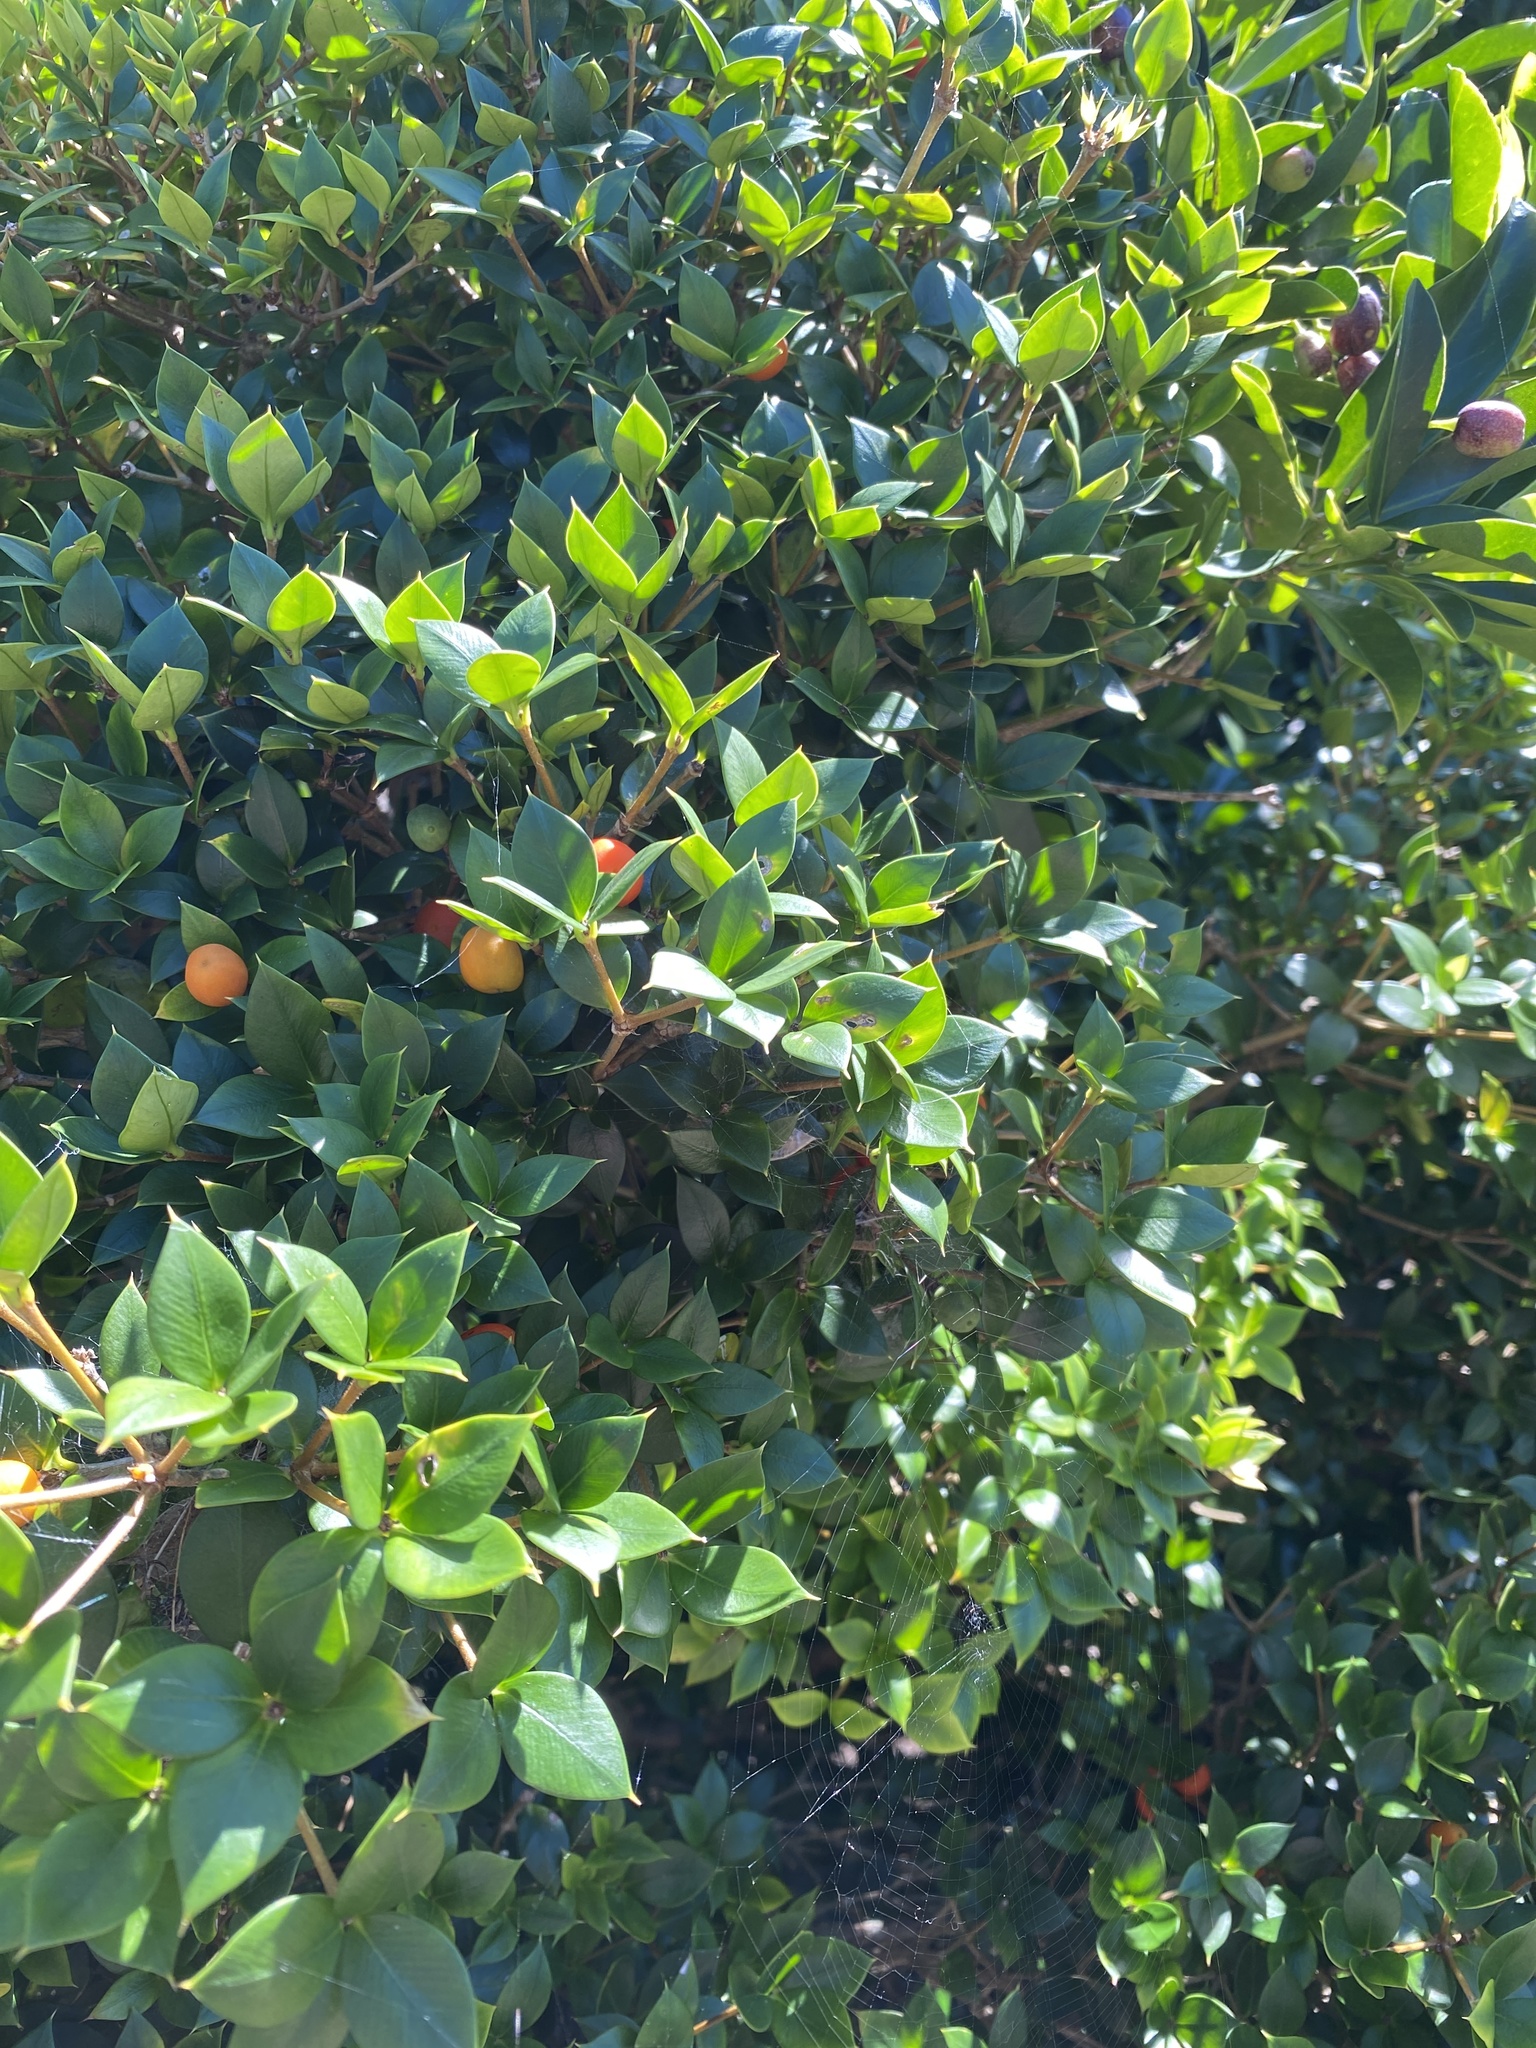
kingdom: Plantae
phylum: Tracheophyta
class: Magnoliopsida
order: Gentianales
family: Apocynaceae
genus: Alyxia
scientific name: Alyxia ruscifolia
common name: Chainfruit
